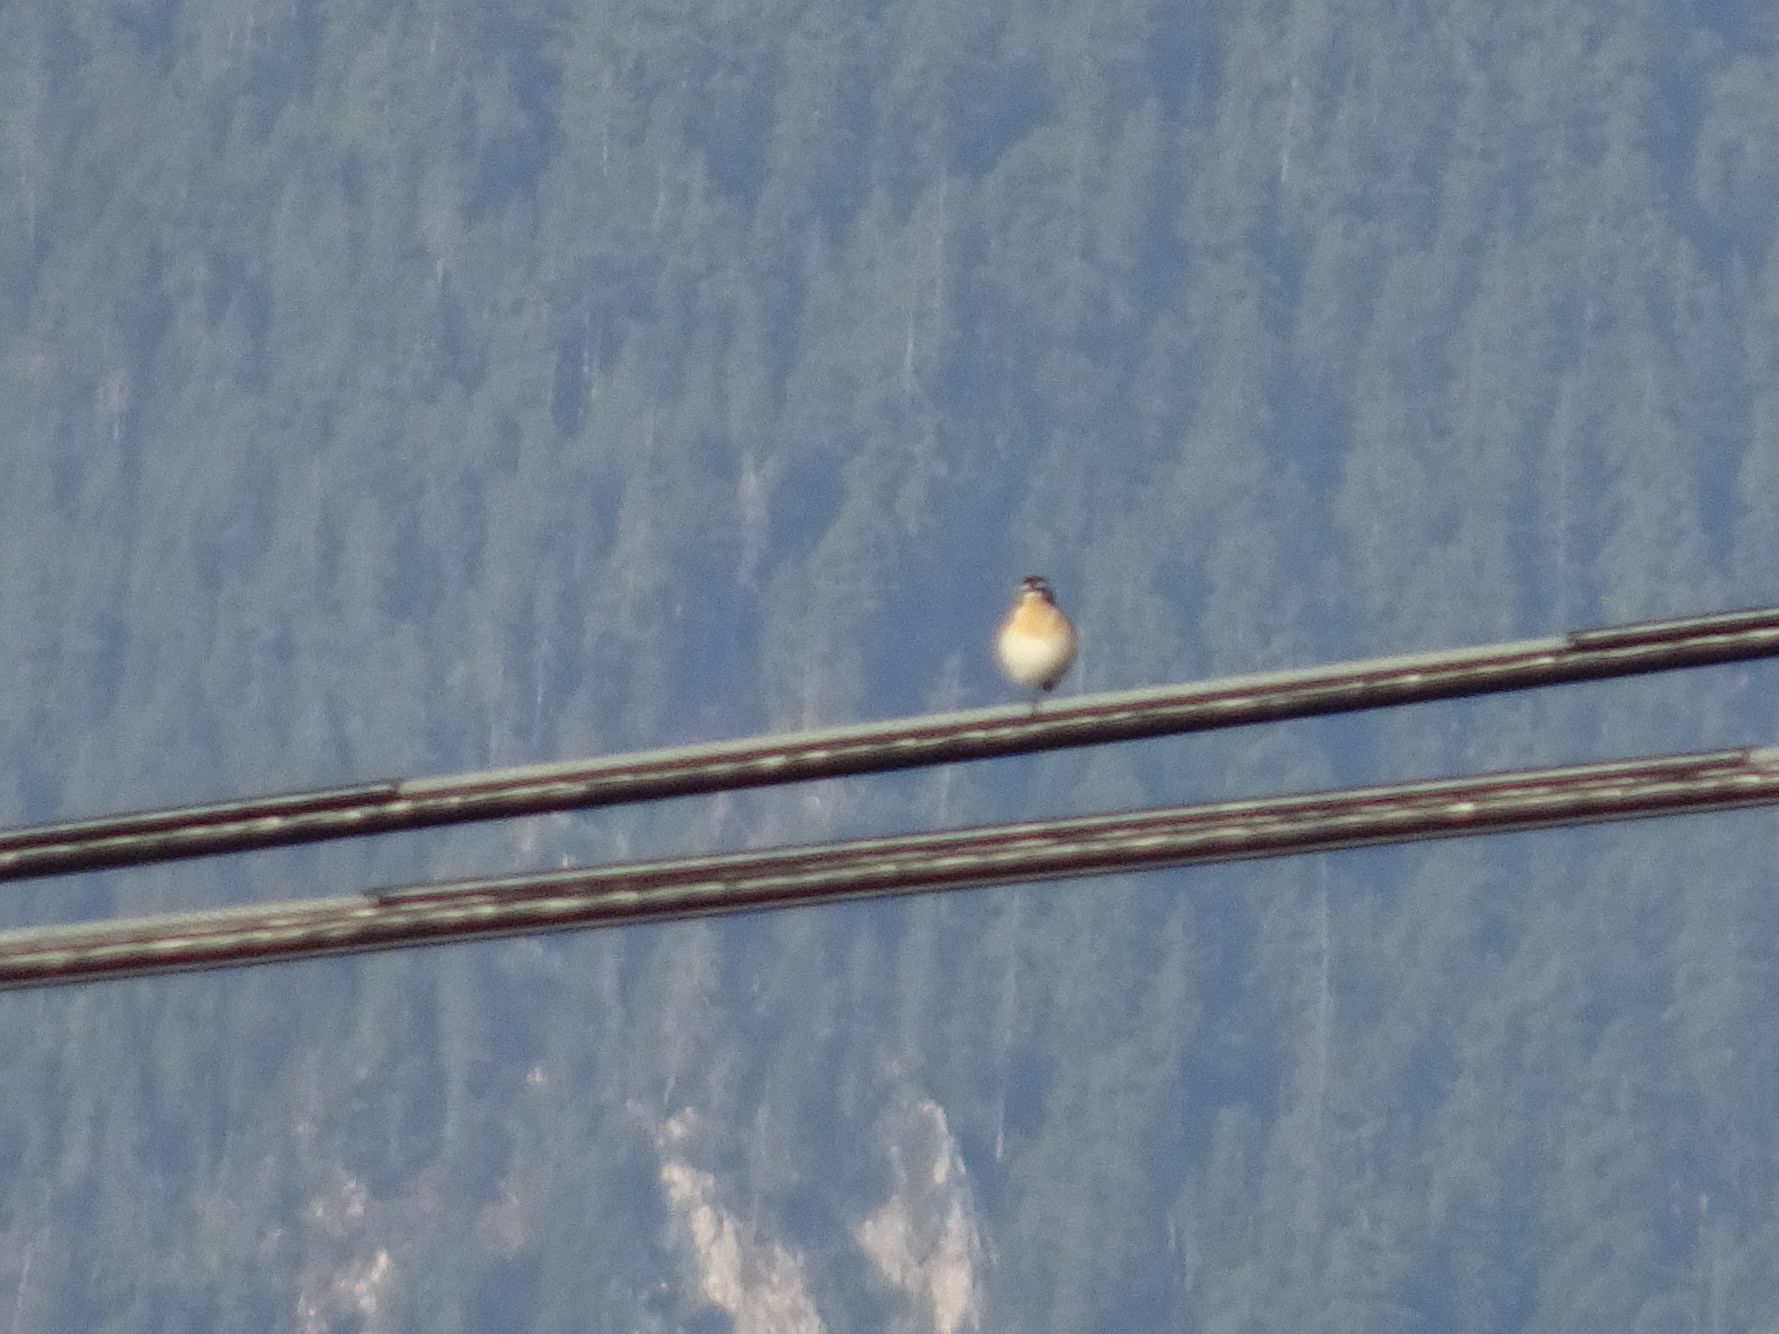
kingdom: Animalia
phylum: Chordata
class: Aves
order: Passeriformes
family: Muscicapidae
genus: Saxicola
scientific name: Saxicola rubetra
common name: Whinchat
